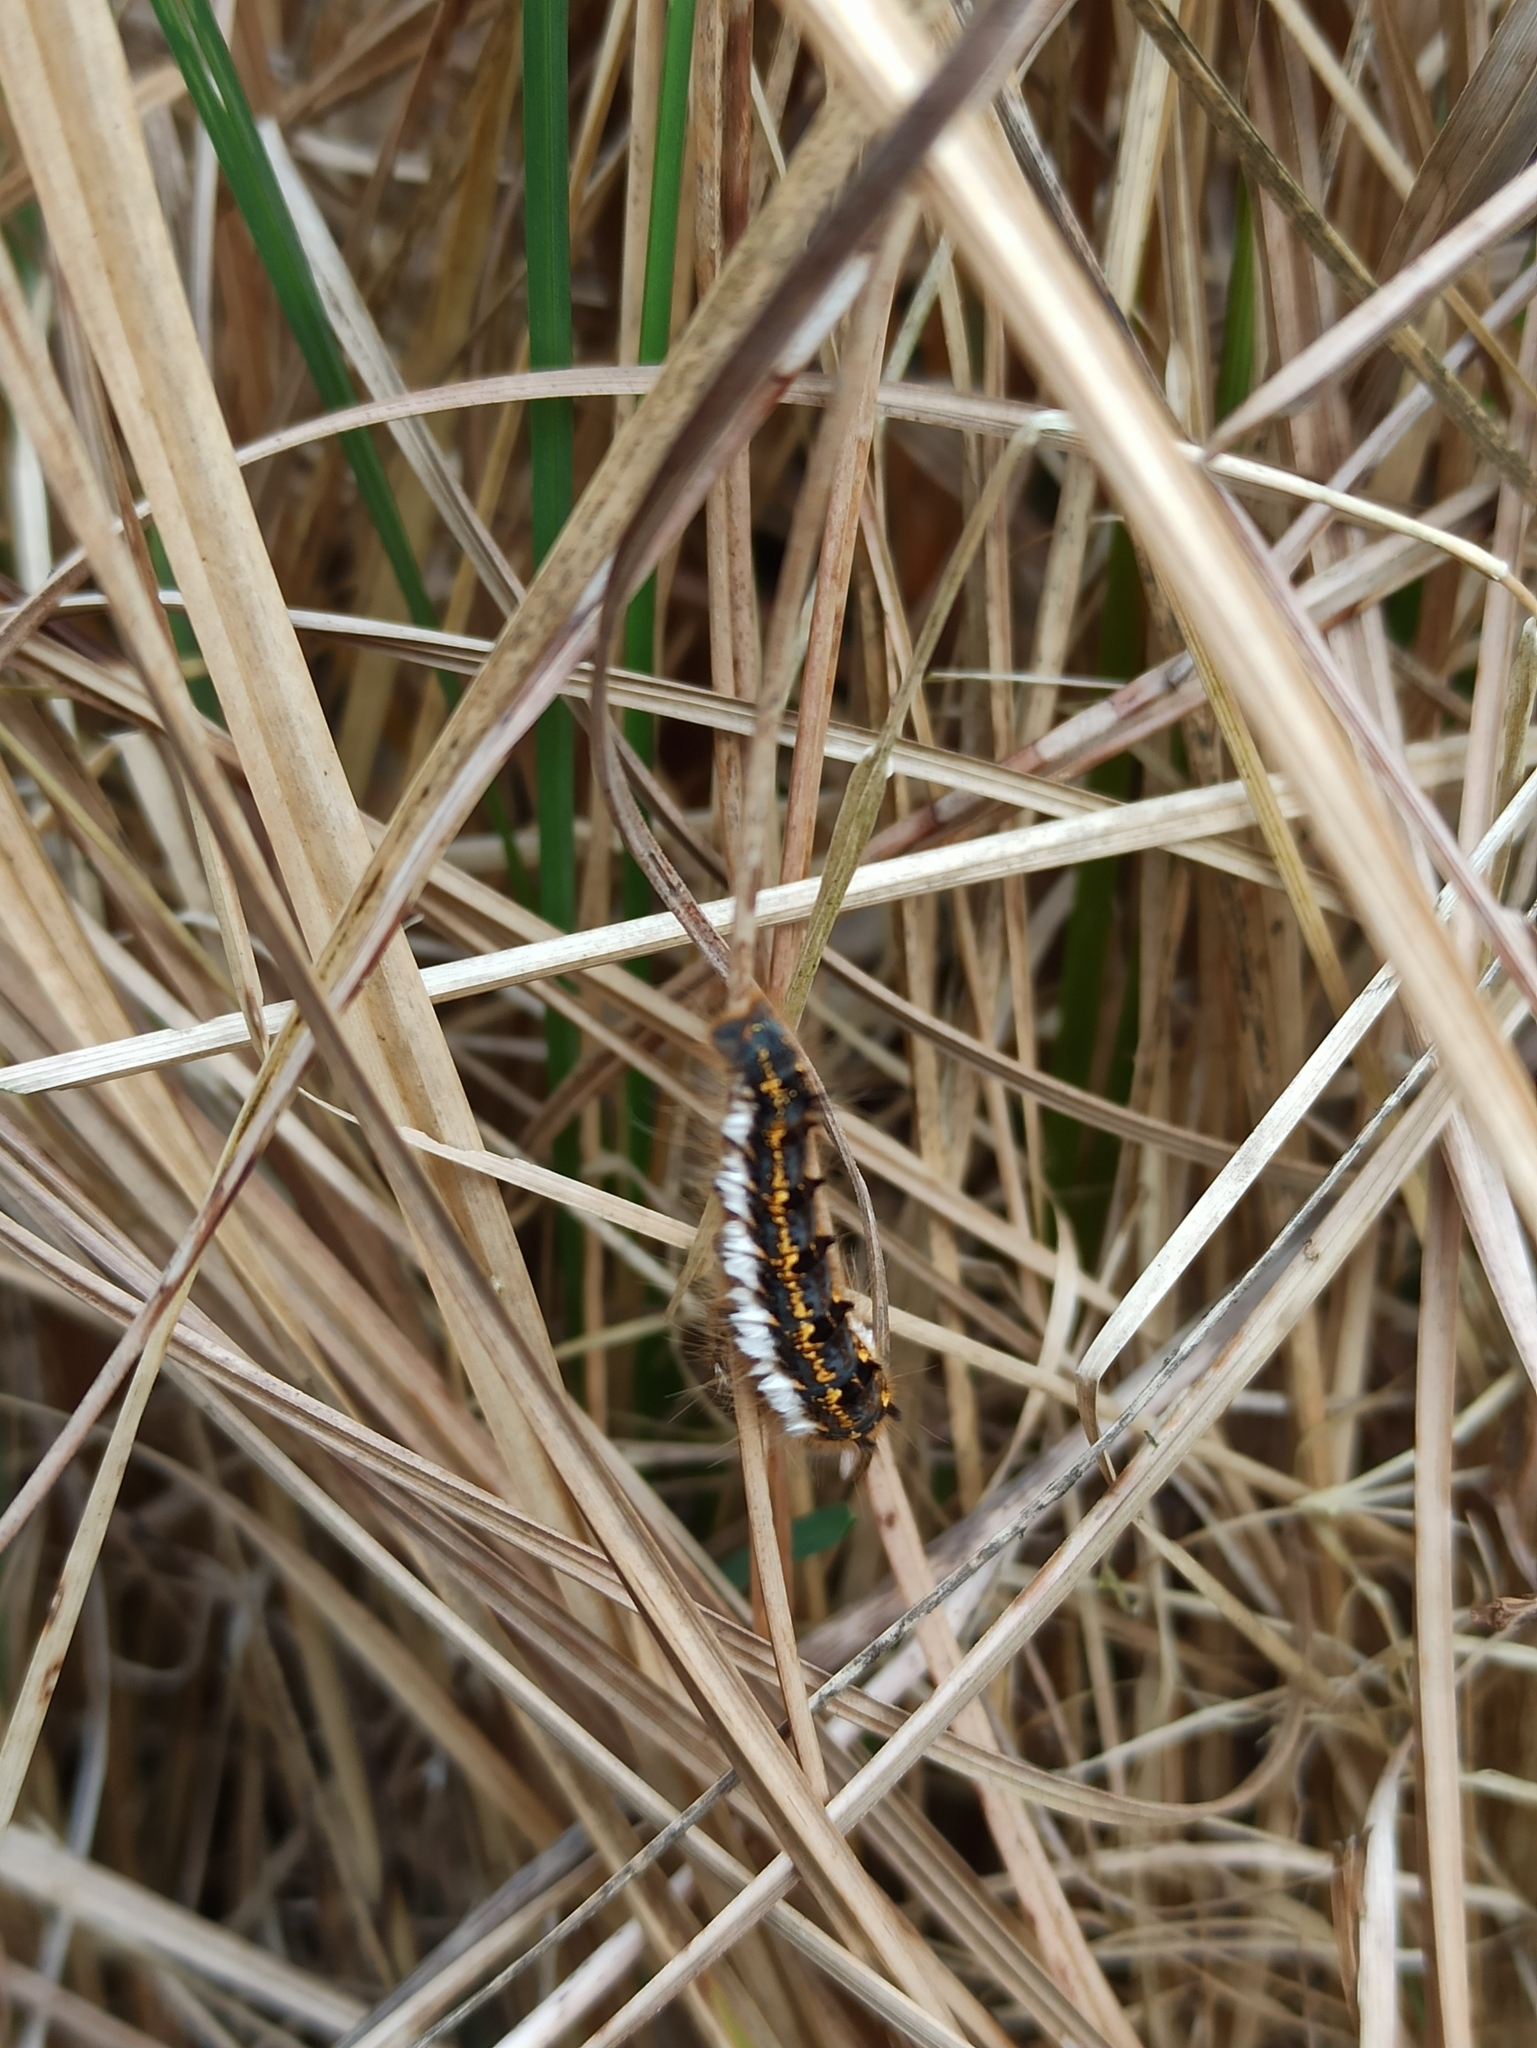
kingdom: Animalia
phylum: Arthropoda
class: Insecta
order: Lepidoptera
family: Lasiocampidae
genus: Euthrix
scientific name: Euthrix potatoria
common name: Drinker
